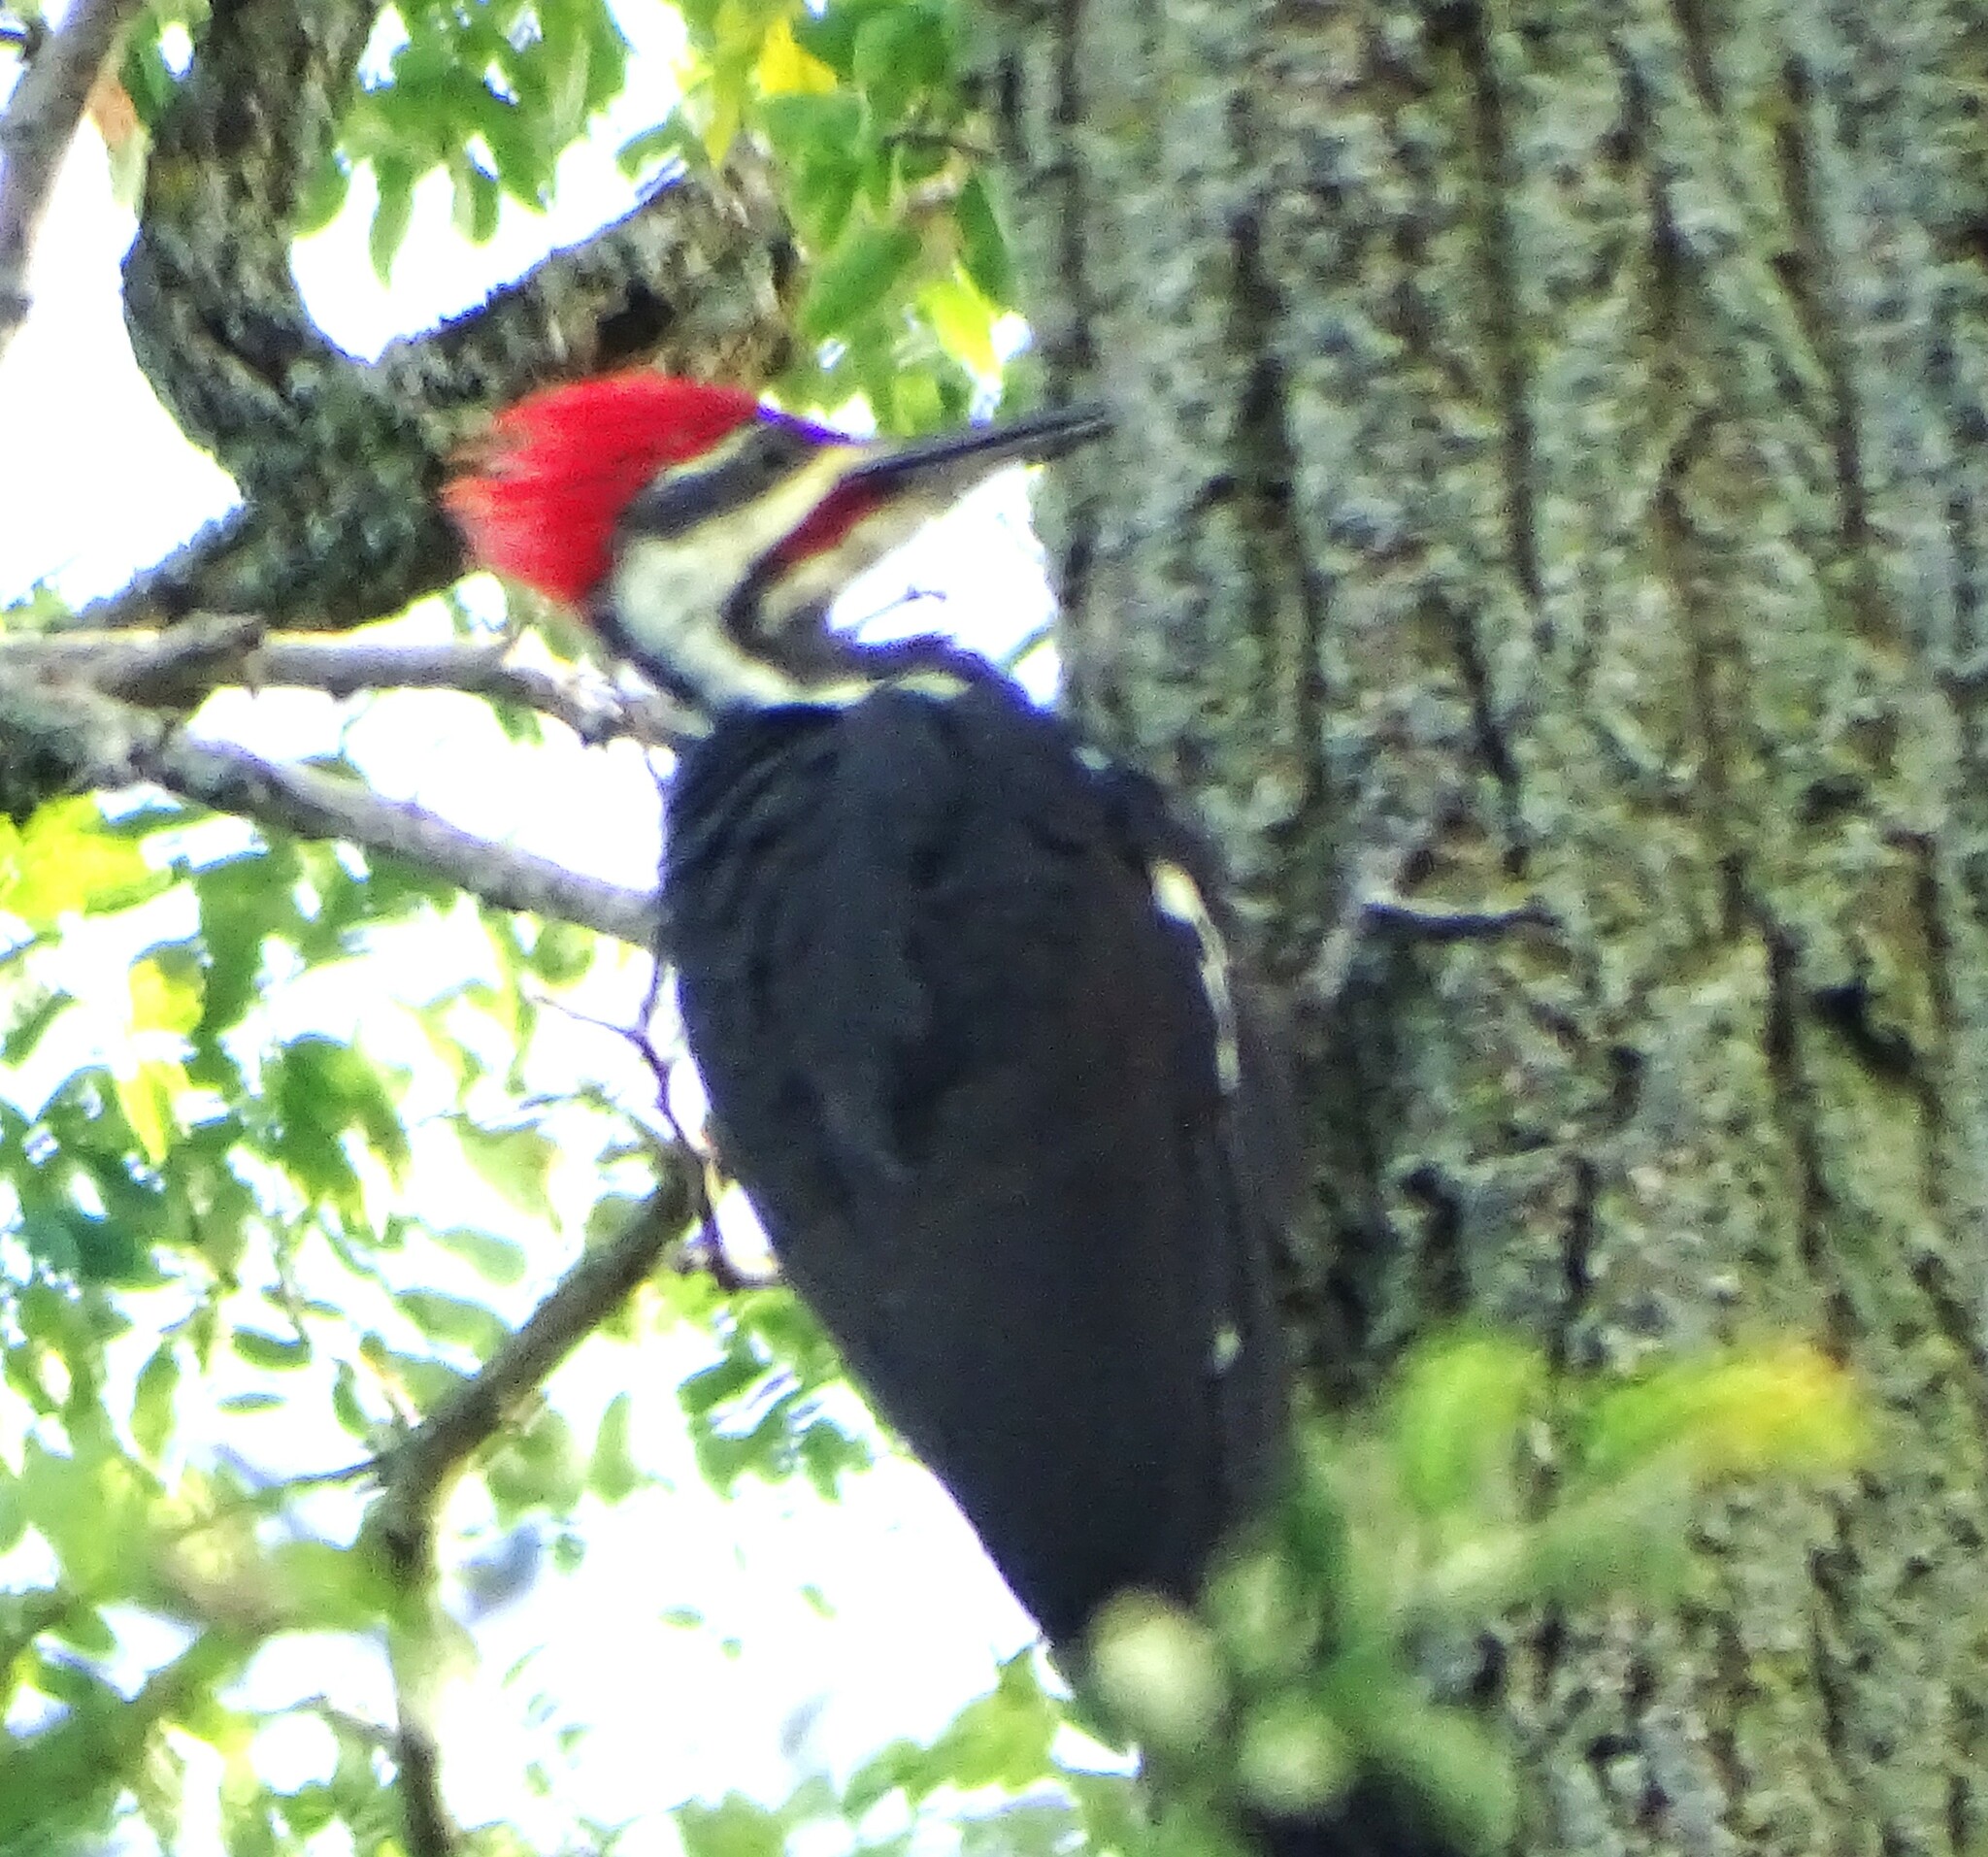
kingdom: Animalia
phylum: Chordata
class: Aves
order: Piciformes
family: Picidae
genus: Dryocopus
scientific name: Dryocopus pileatus
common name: Pileated woodpecker
